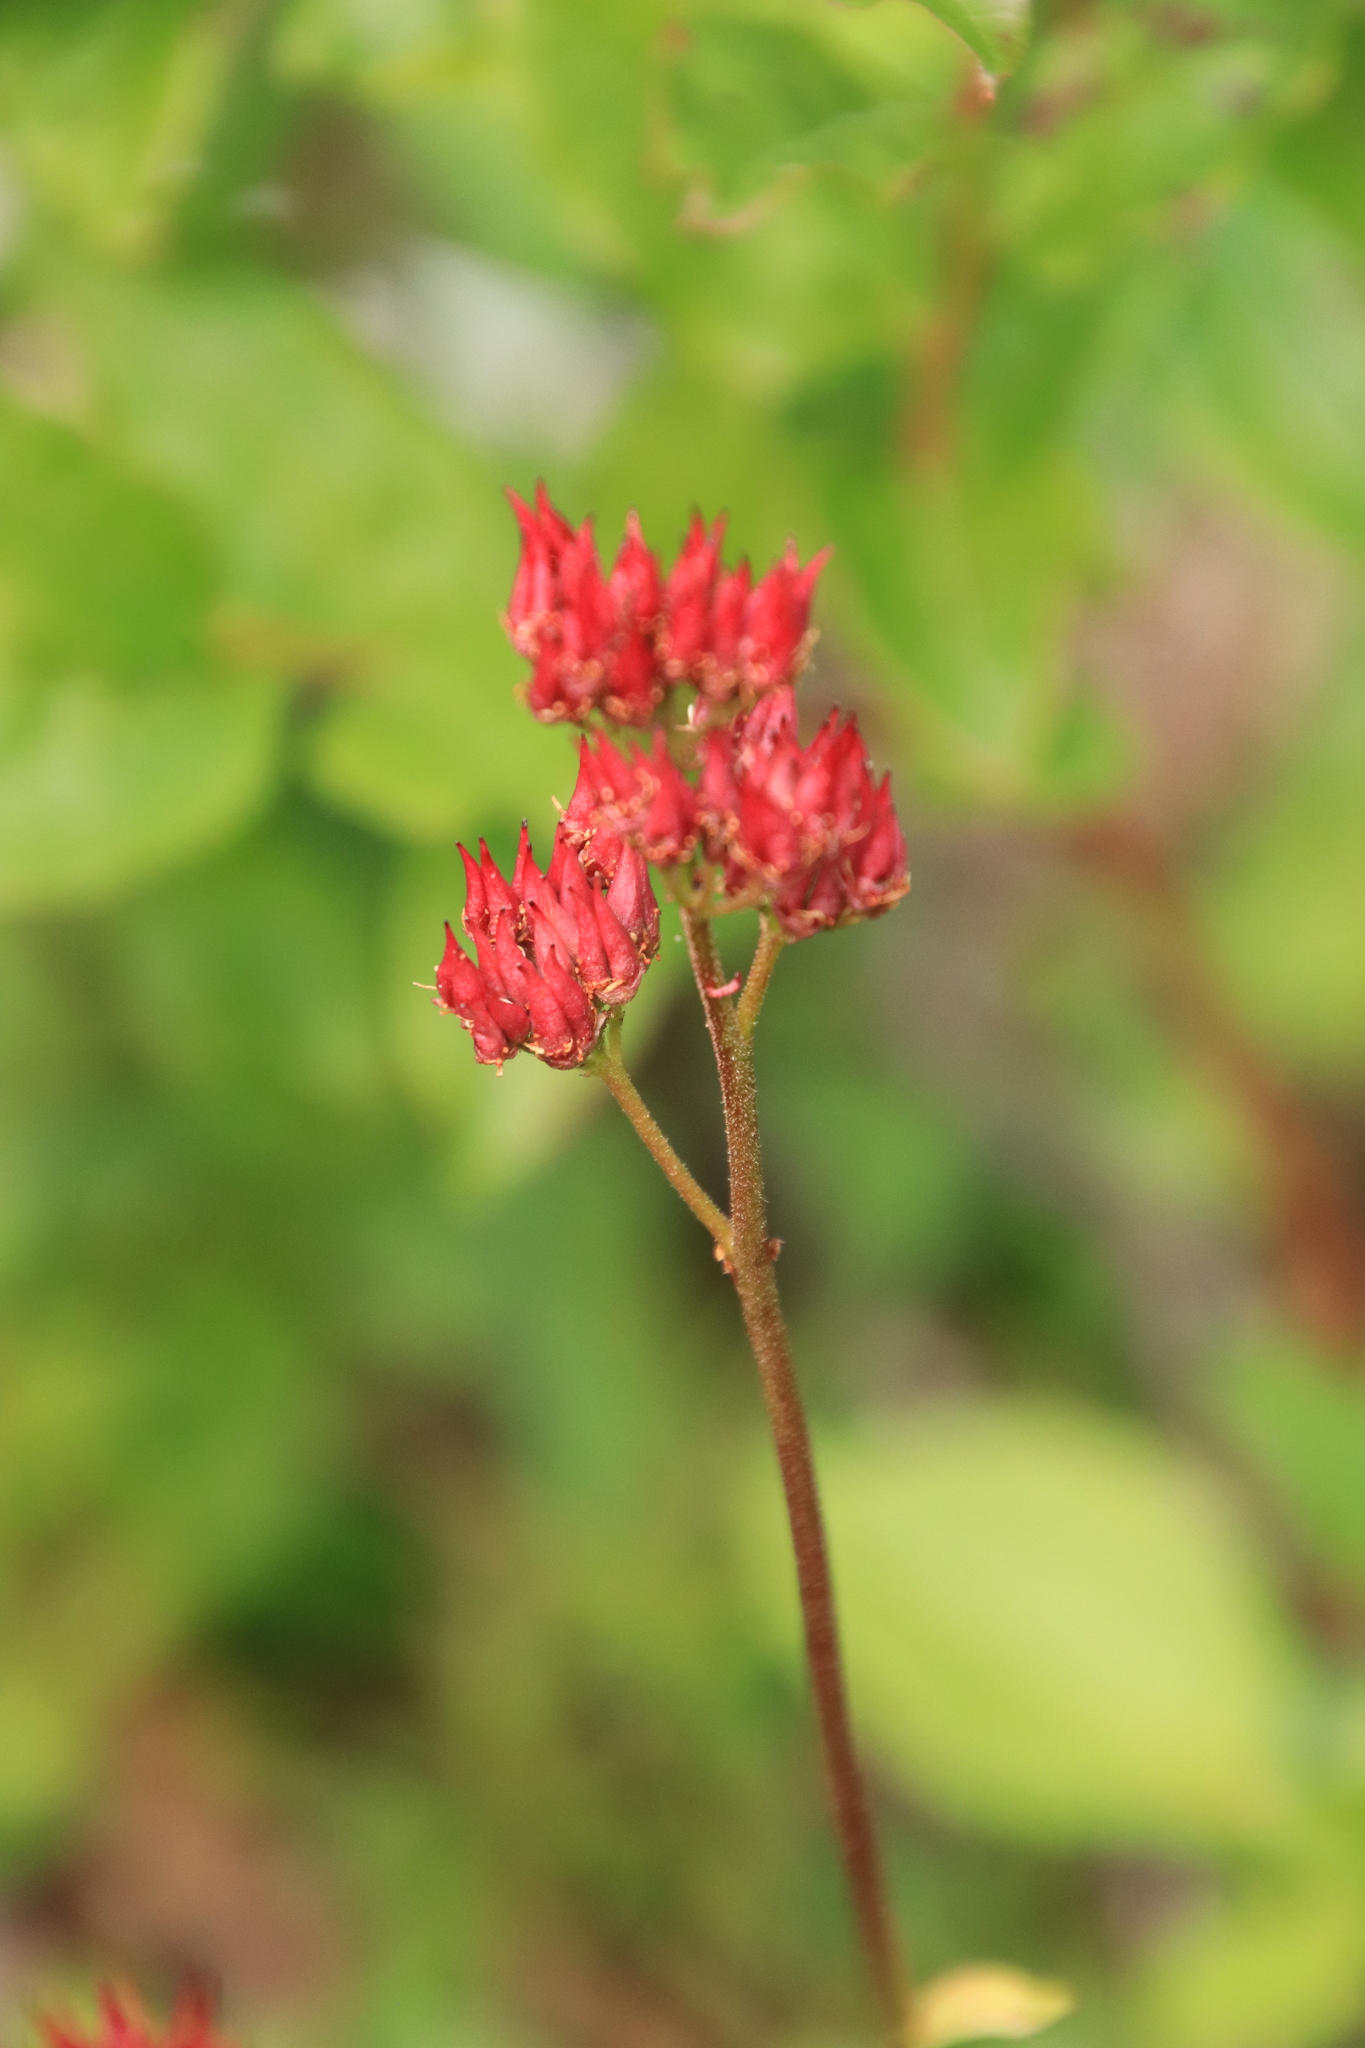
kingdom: Plantae
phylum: Tracheophyta
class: Magnoliopsida
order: Saxifragales
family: Saxifragaceae
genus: Leptarrhena
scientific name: Leptarrhena pyrolifolia
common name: Leatherleaf-saxifrage
